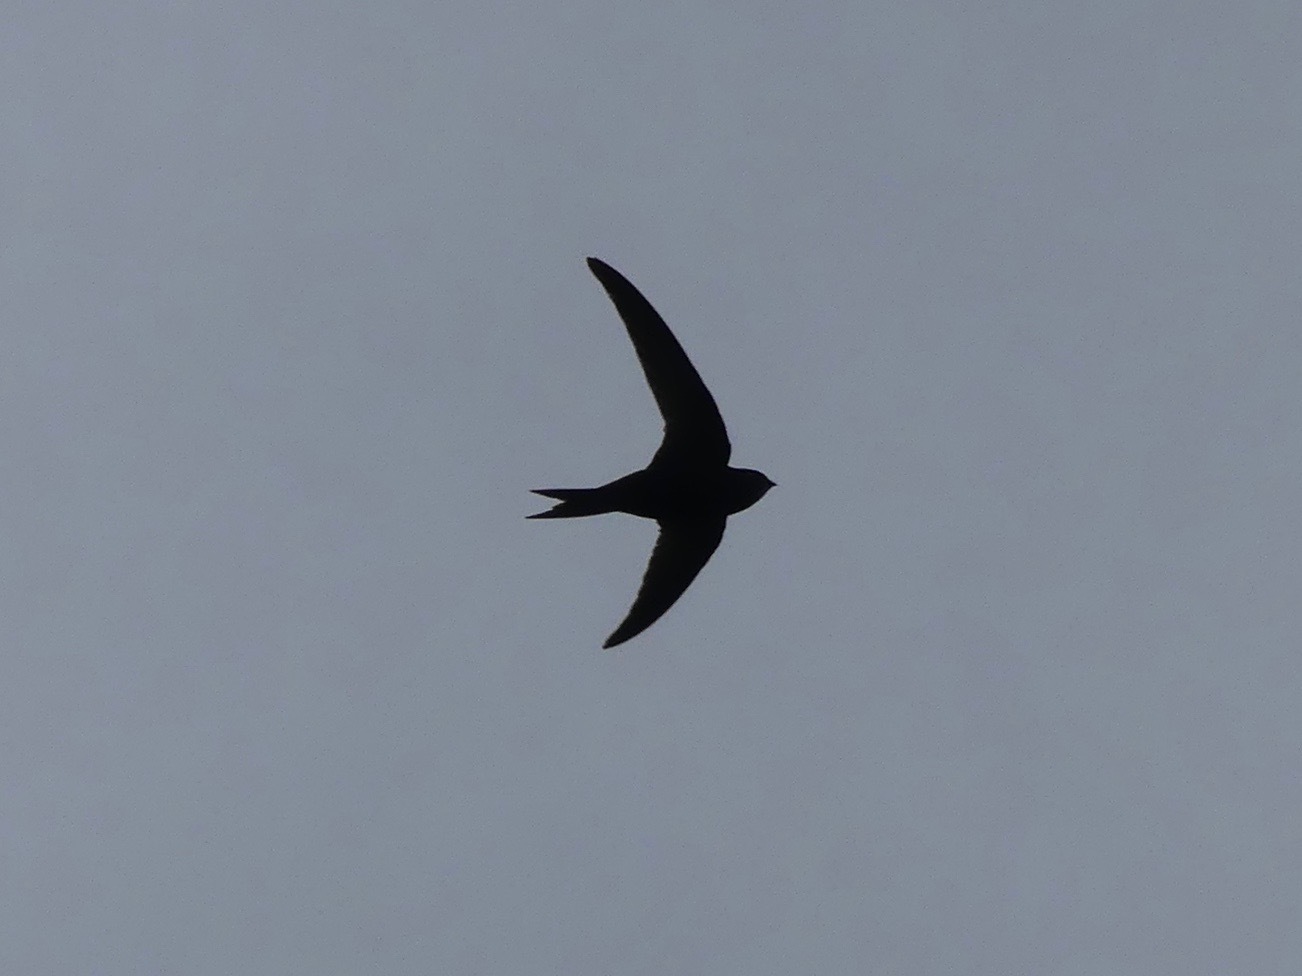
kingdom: Animalia
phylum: Chordata
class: Aves
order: Apodiformes
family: Apodidae
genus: Apus
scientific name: Apus apus
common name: Common swift
